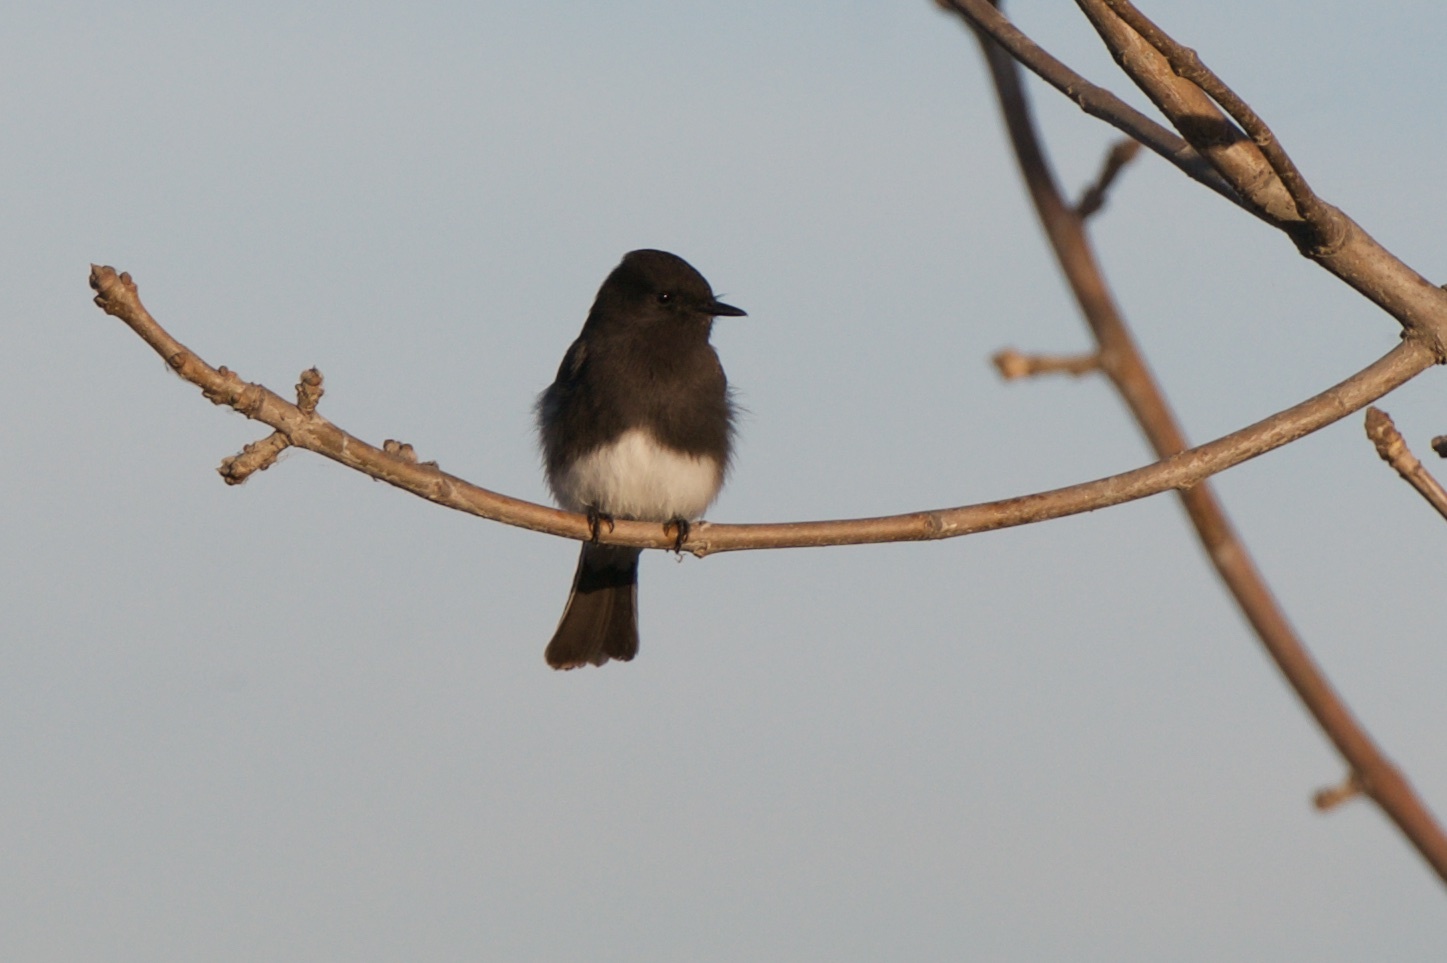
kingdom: Animalia
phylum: Chordata
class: Aves
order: Passeriformes
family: Tyrannidae
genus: Sayornis
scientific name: Sayornis nigricans
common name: Black phoebe
